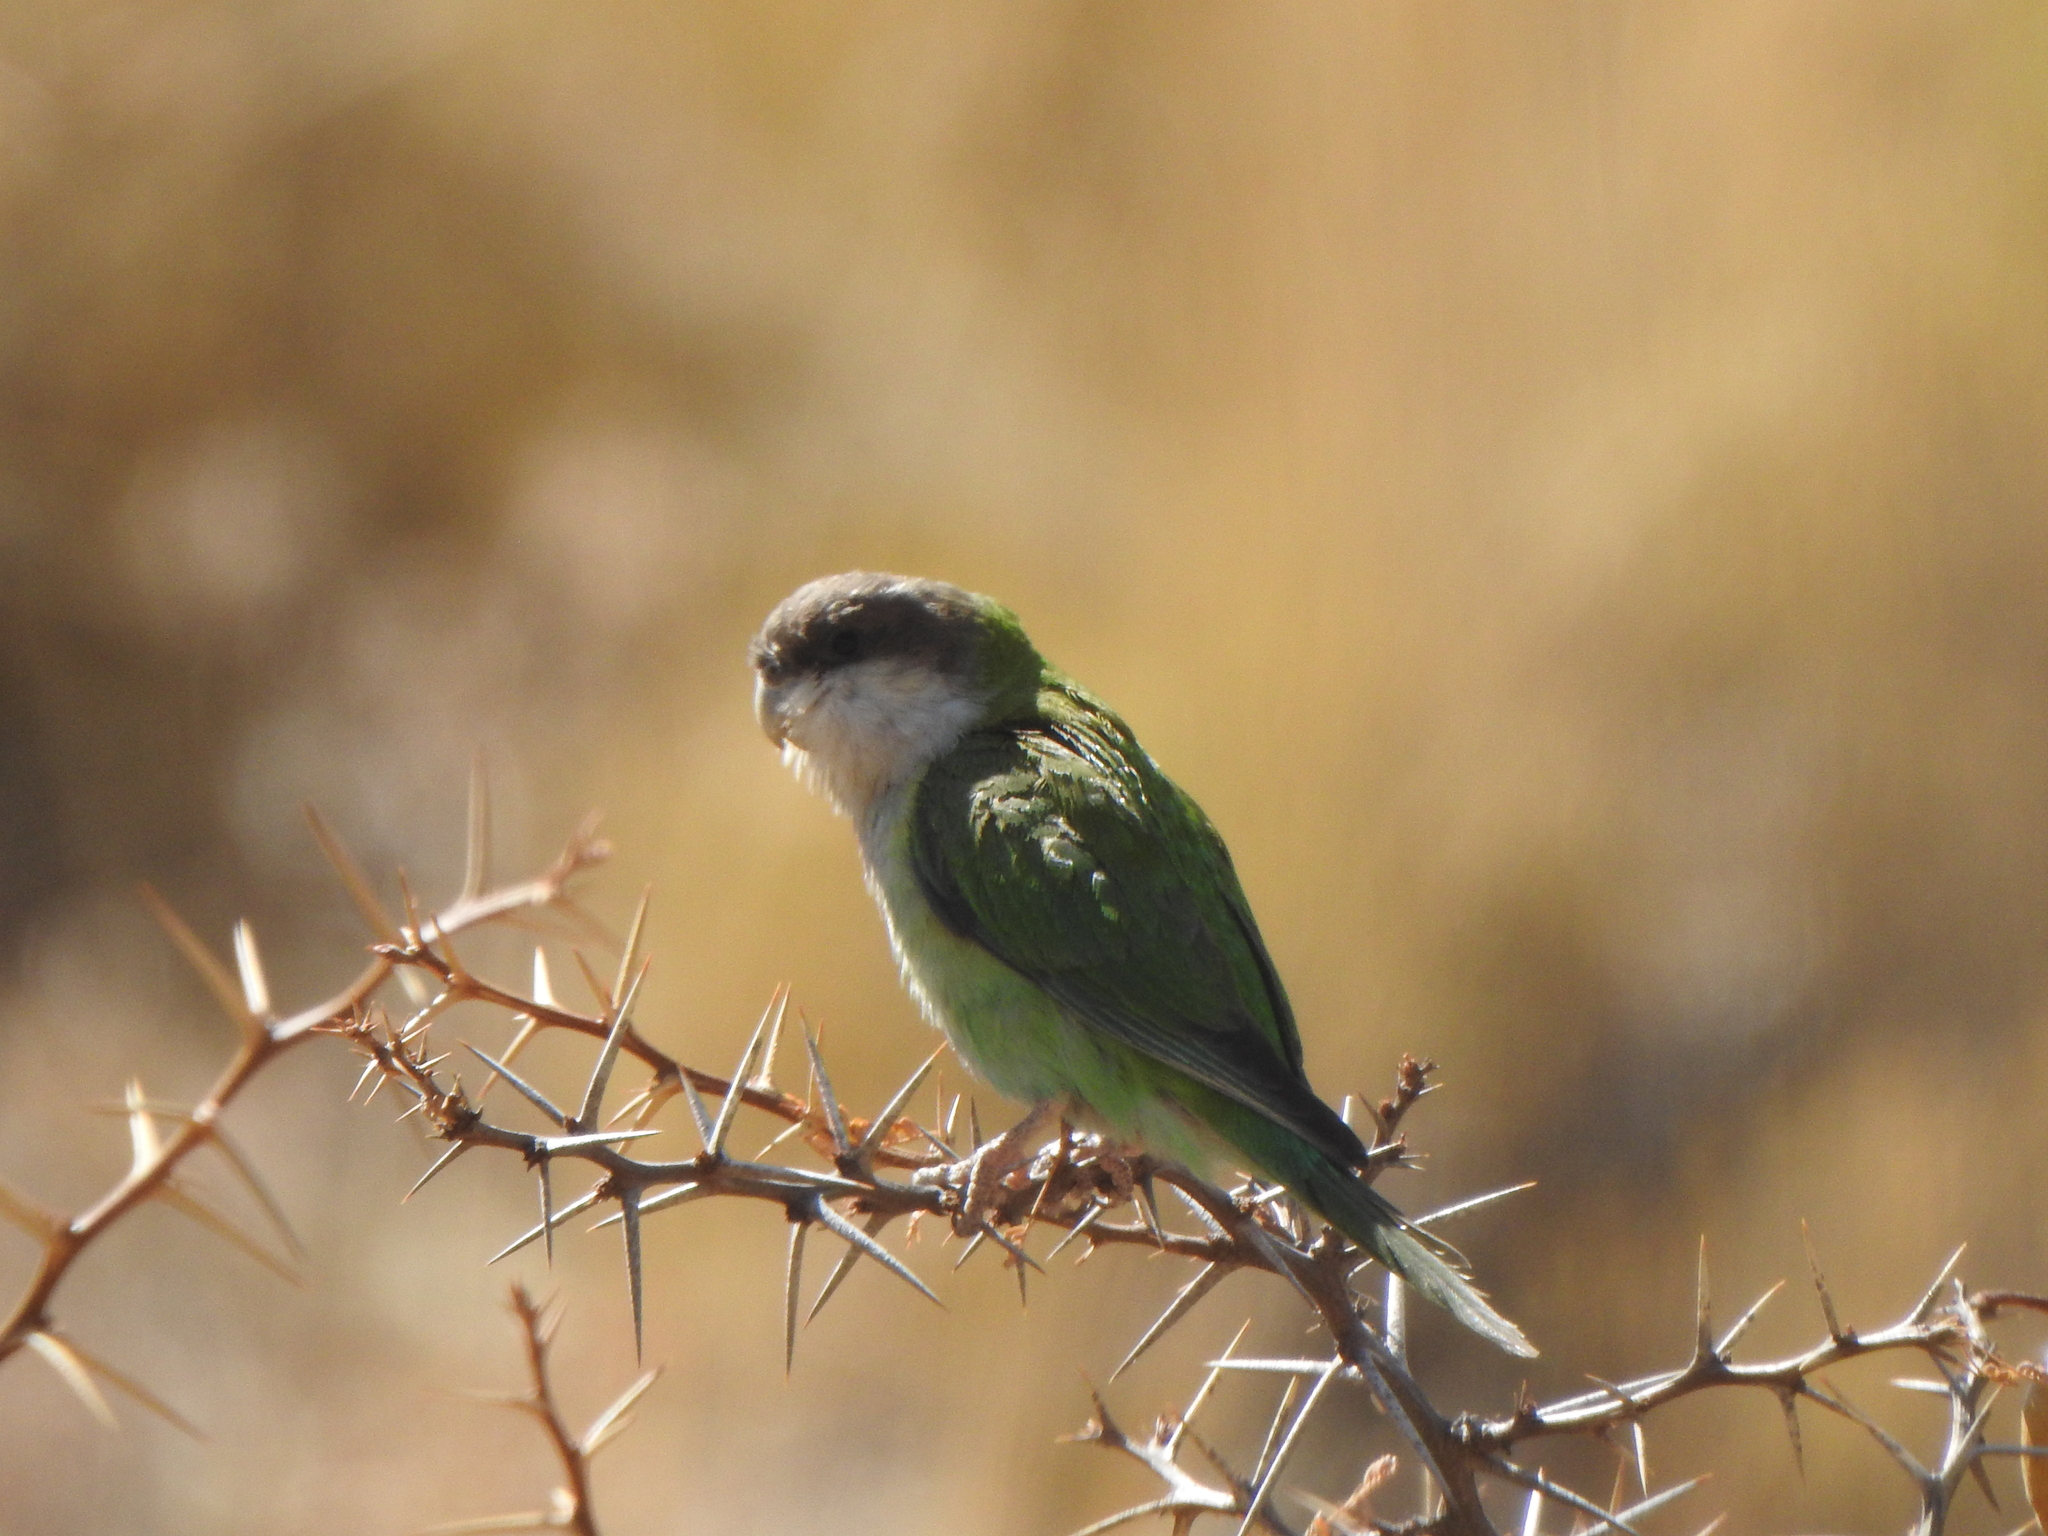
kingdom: Animalia
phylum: Chordata
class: Aves
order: Psittaciformes
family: Psittacidae
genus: Psilopsiagon
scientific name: Psilopsiagon aymara
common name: Grey-hooded parakeet
